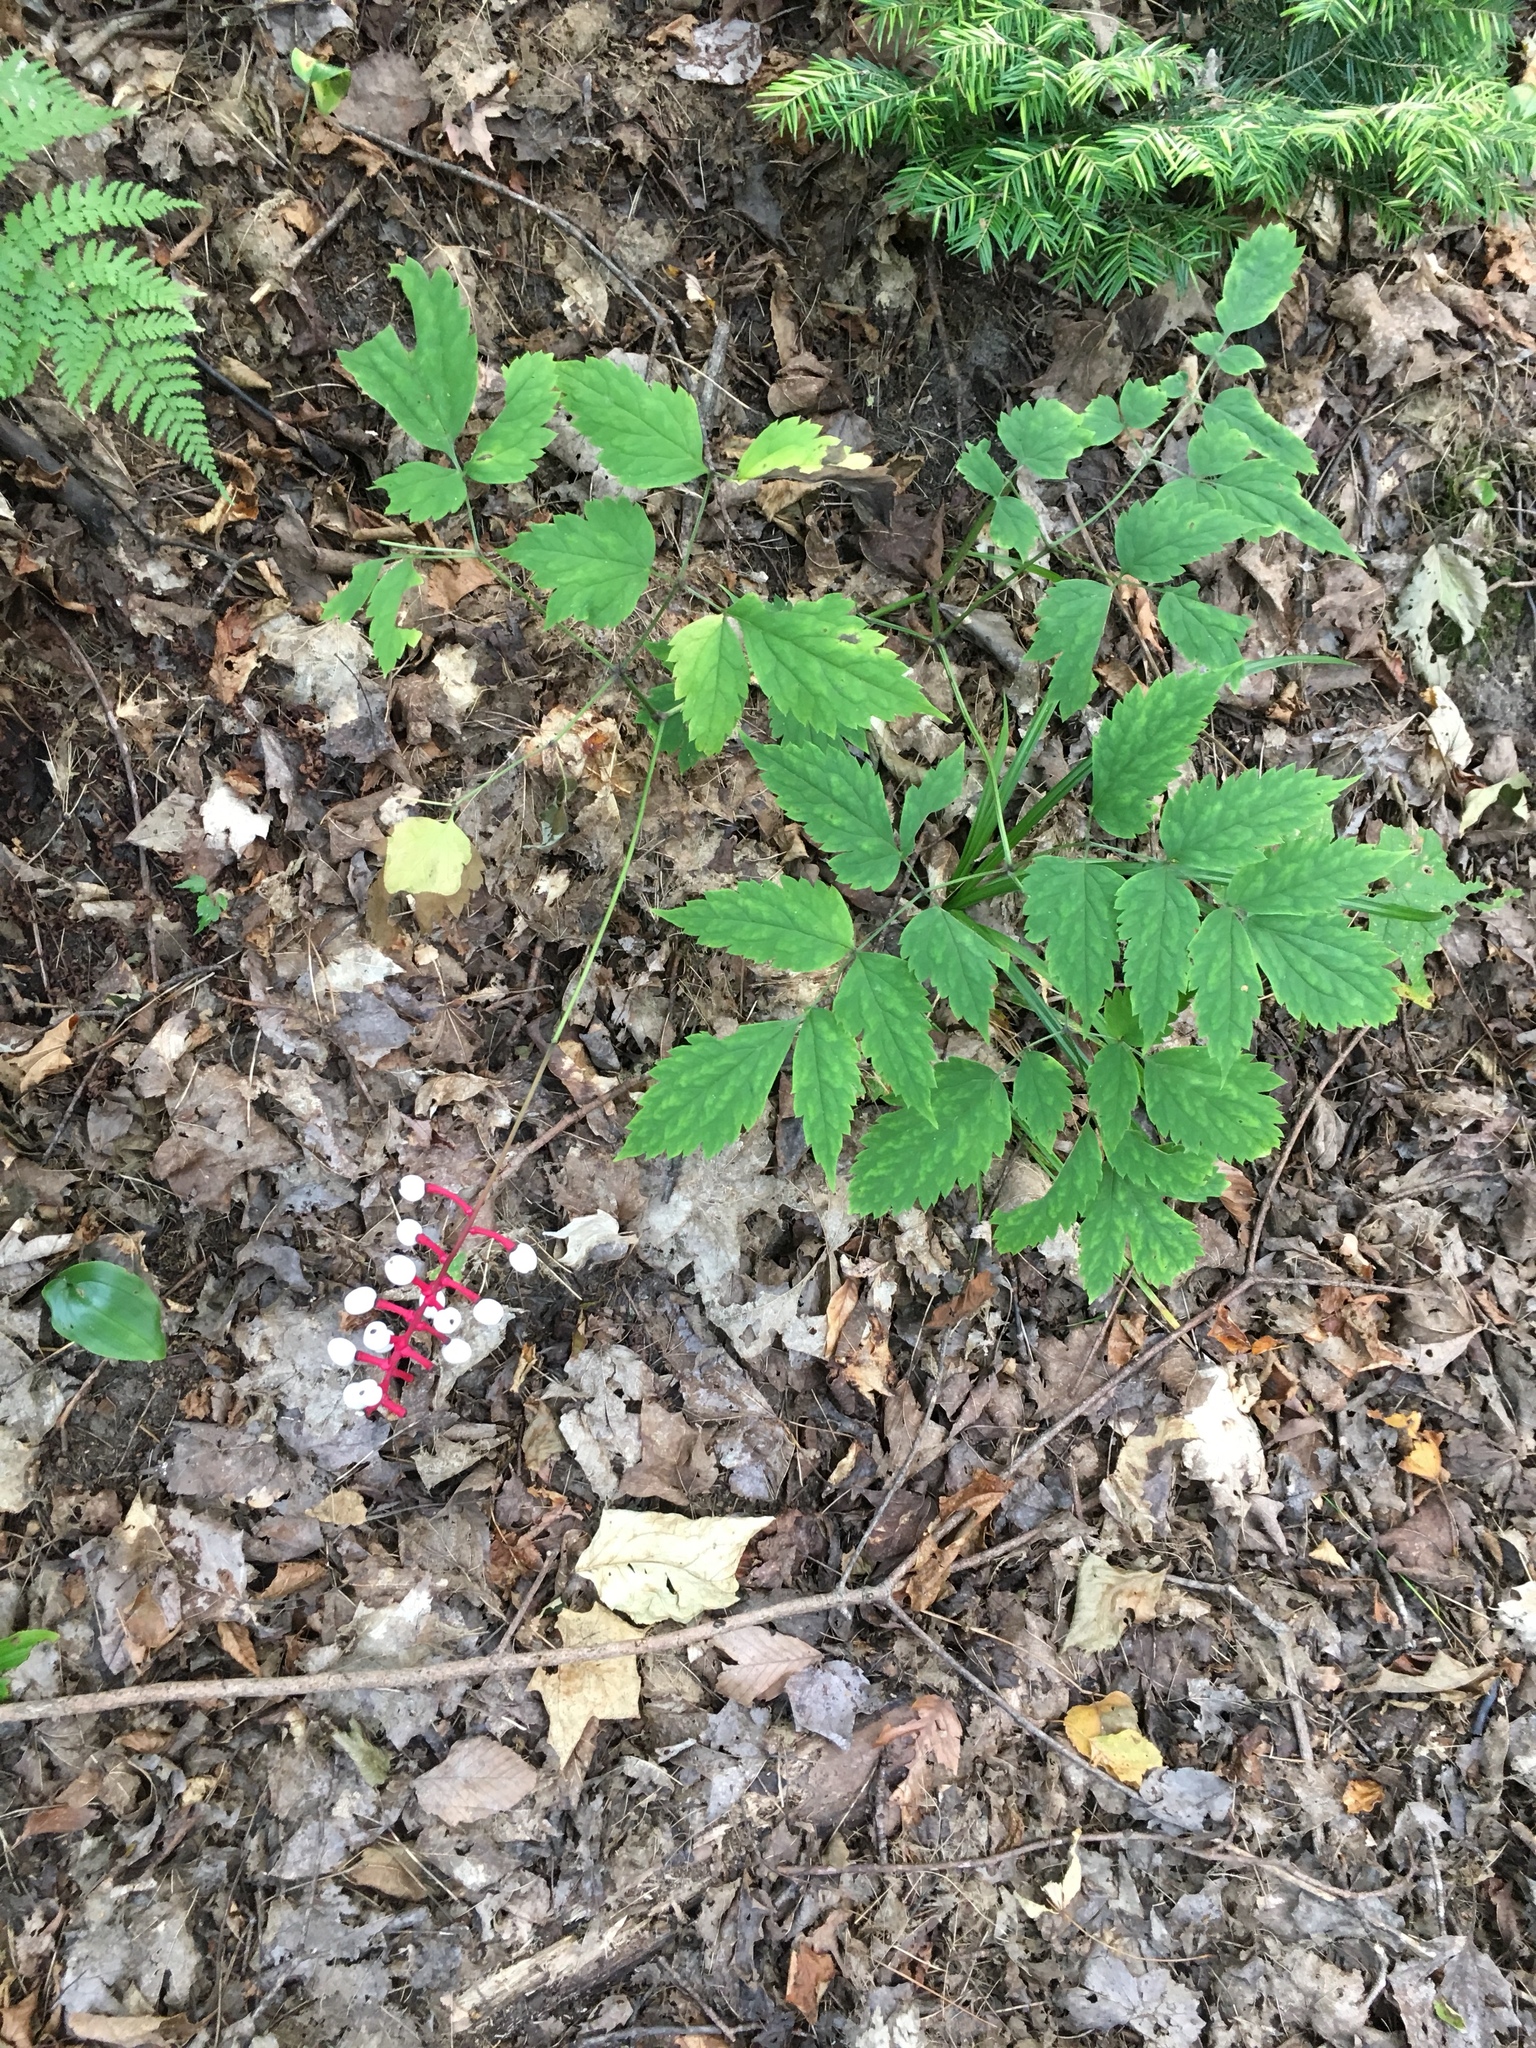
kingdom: Plantae
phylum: Tracheophyta
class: Magnoliopsida
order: Ranunculales
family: Ranunculaceae
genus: Actaea
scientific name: Actaea pachypoda
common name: Doll's-eyes
